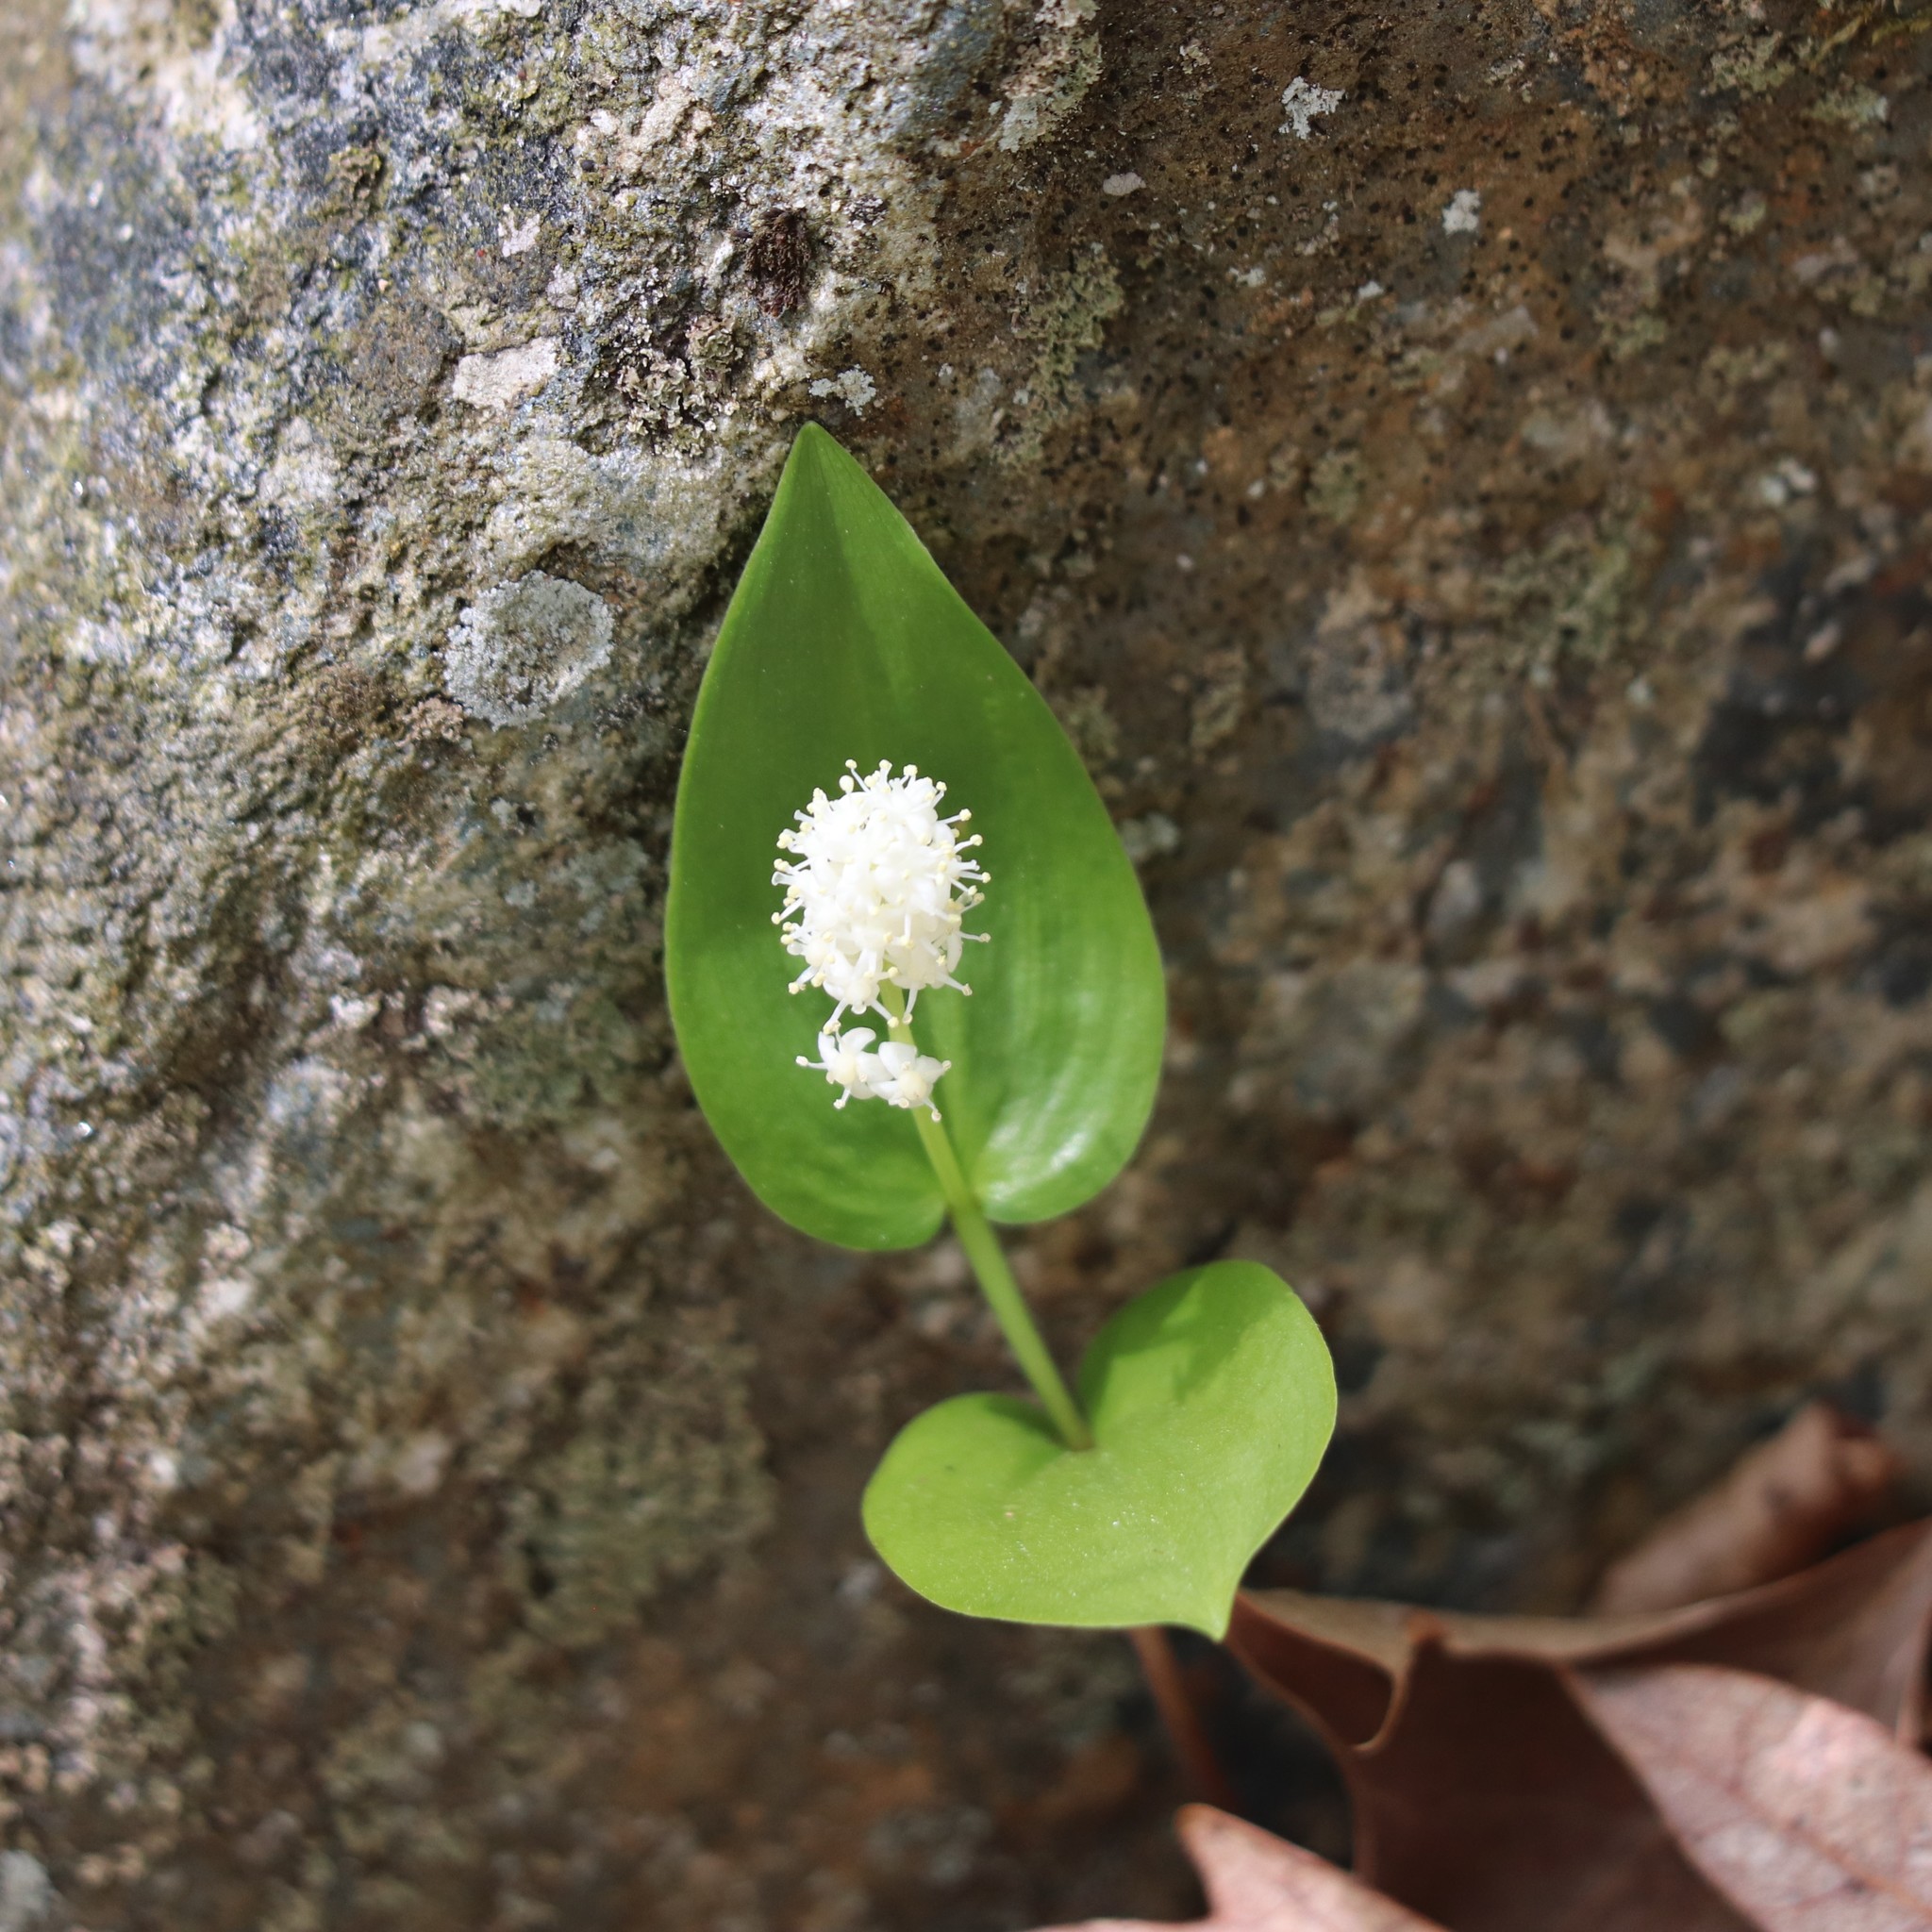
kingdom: Plantae
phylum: Tracheophyta
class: Liliopsida
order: Asparagales
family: Asparagaceae
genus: Maianthemum
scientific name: Maianthemum canadense
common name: False lily-of-the-valley
